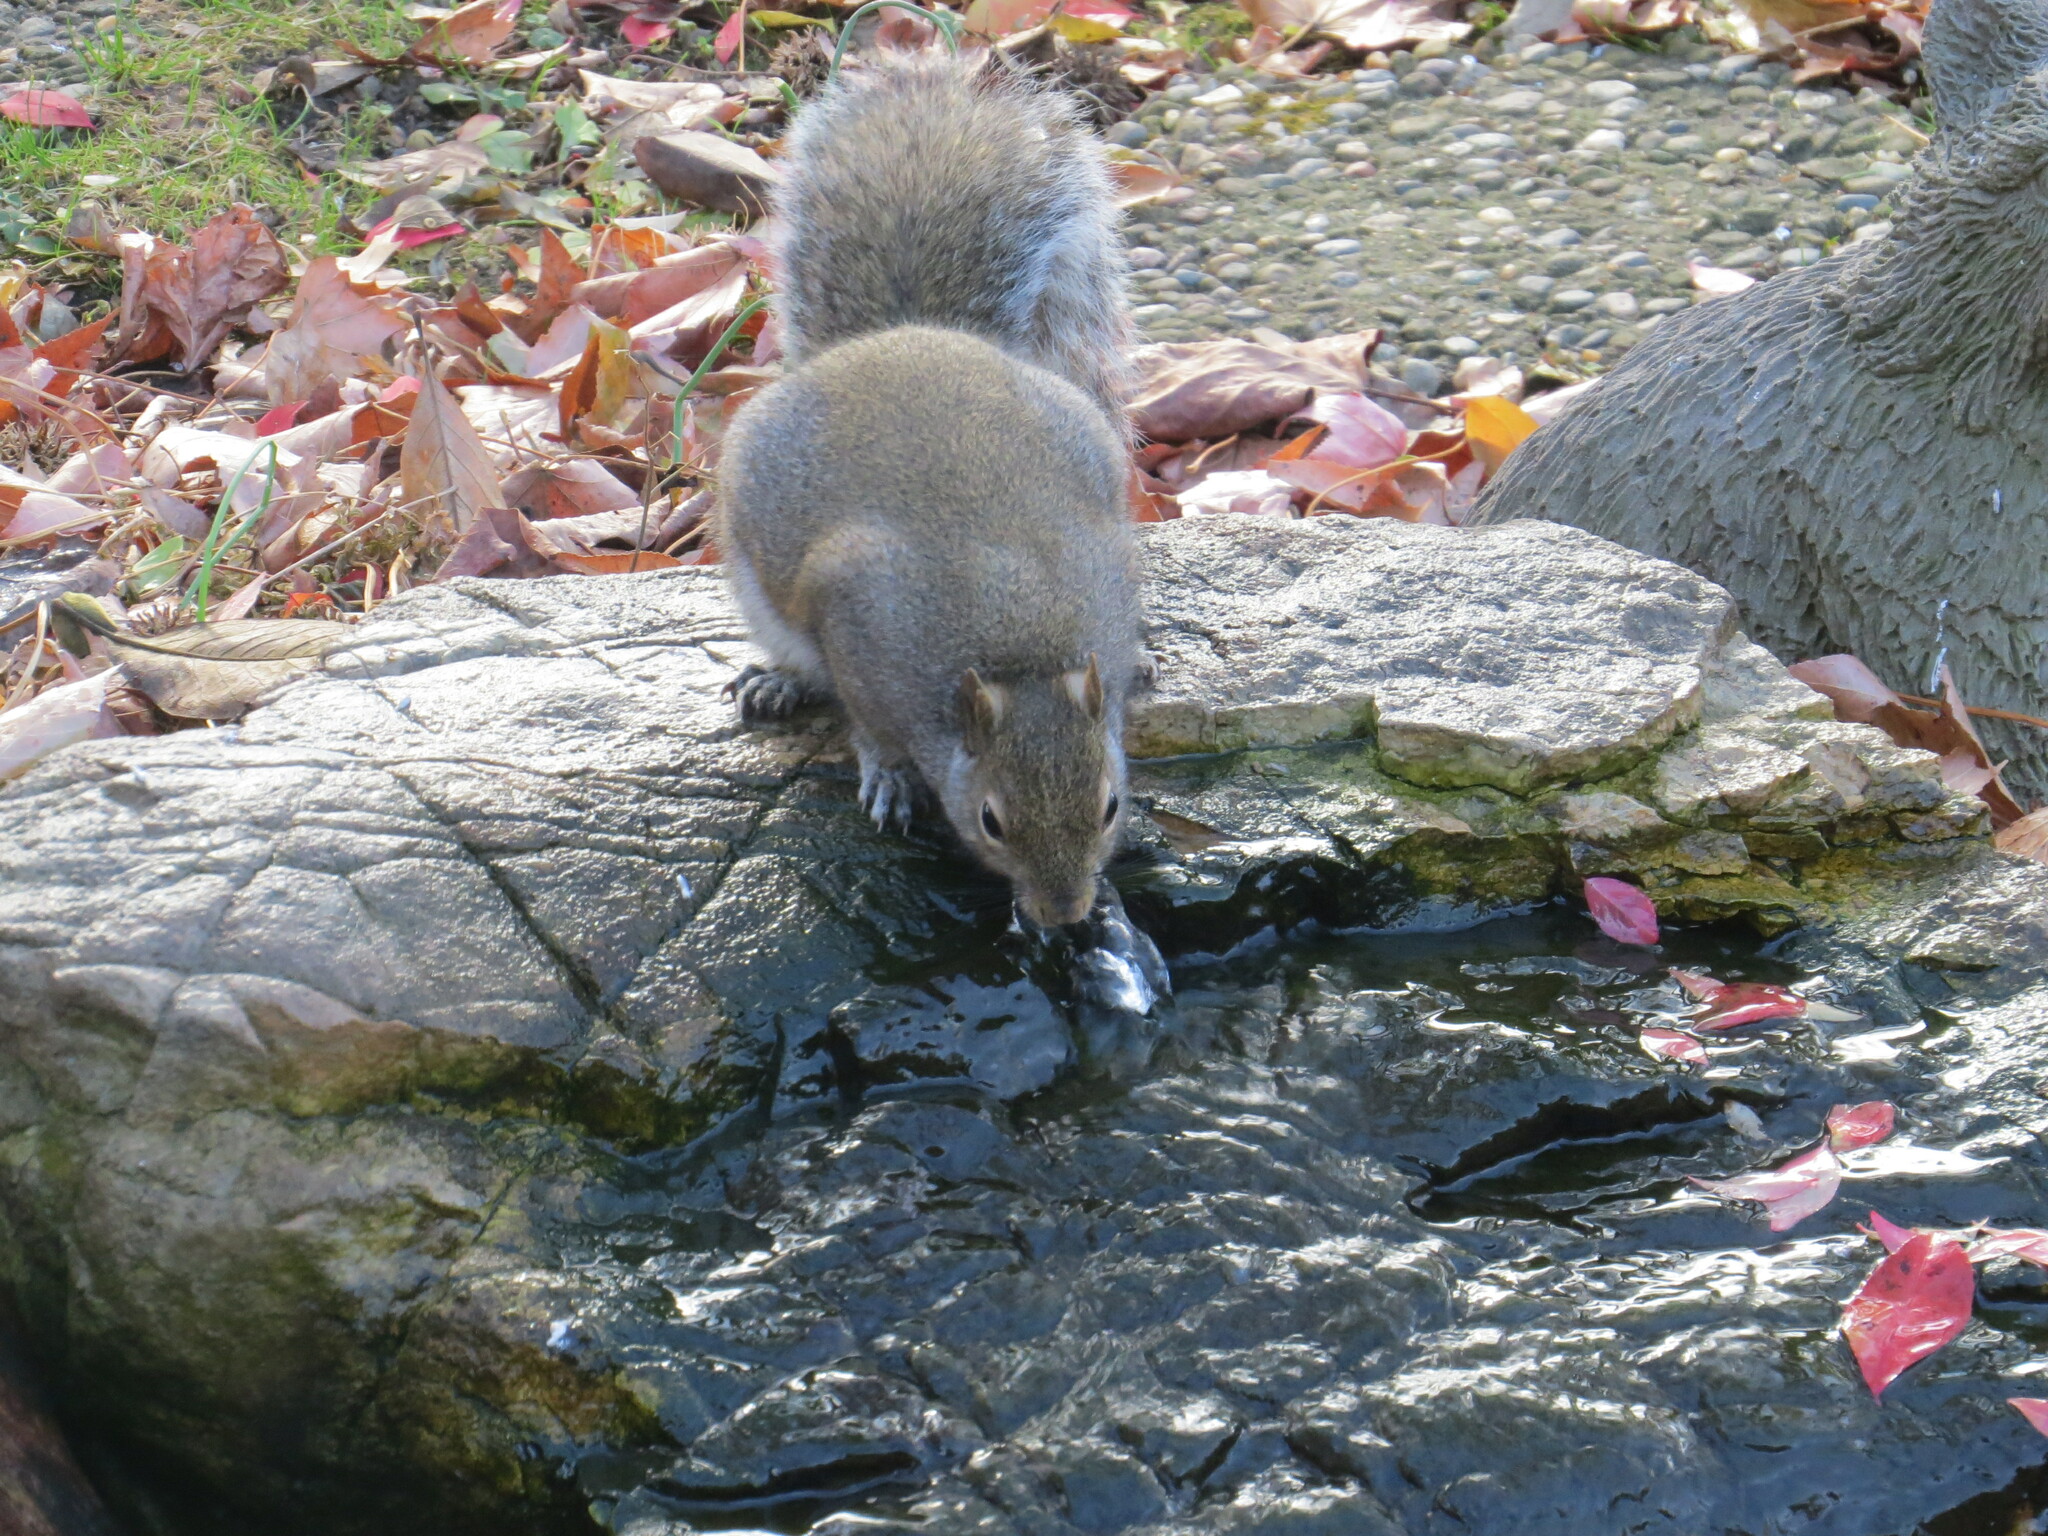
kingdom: Animalia
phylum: Chordata
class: Mammalia
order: Rodentia
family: Sciuridae
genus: Sciurus
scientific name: Sciurus carolinensis
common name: Eastern gray squirrel
